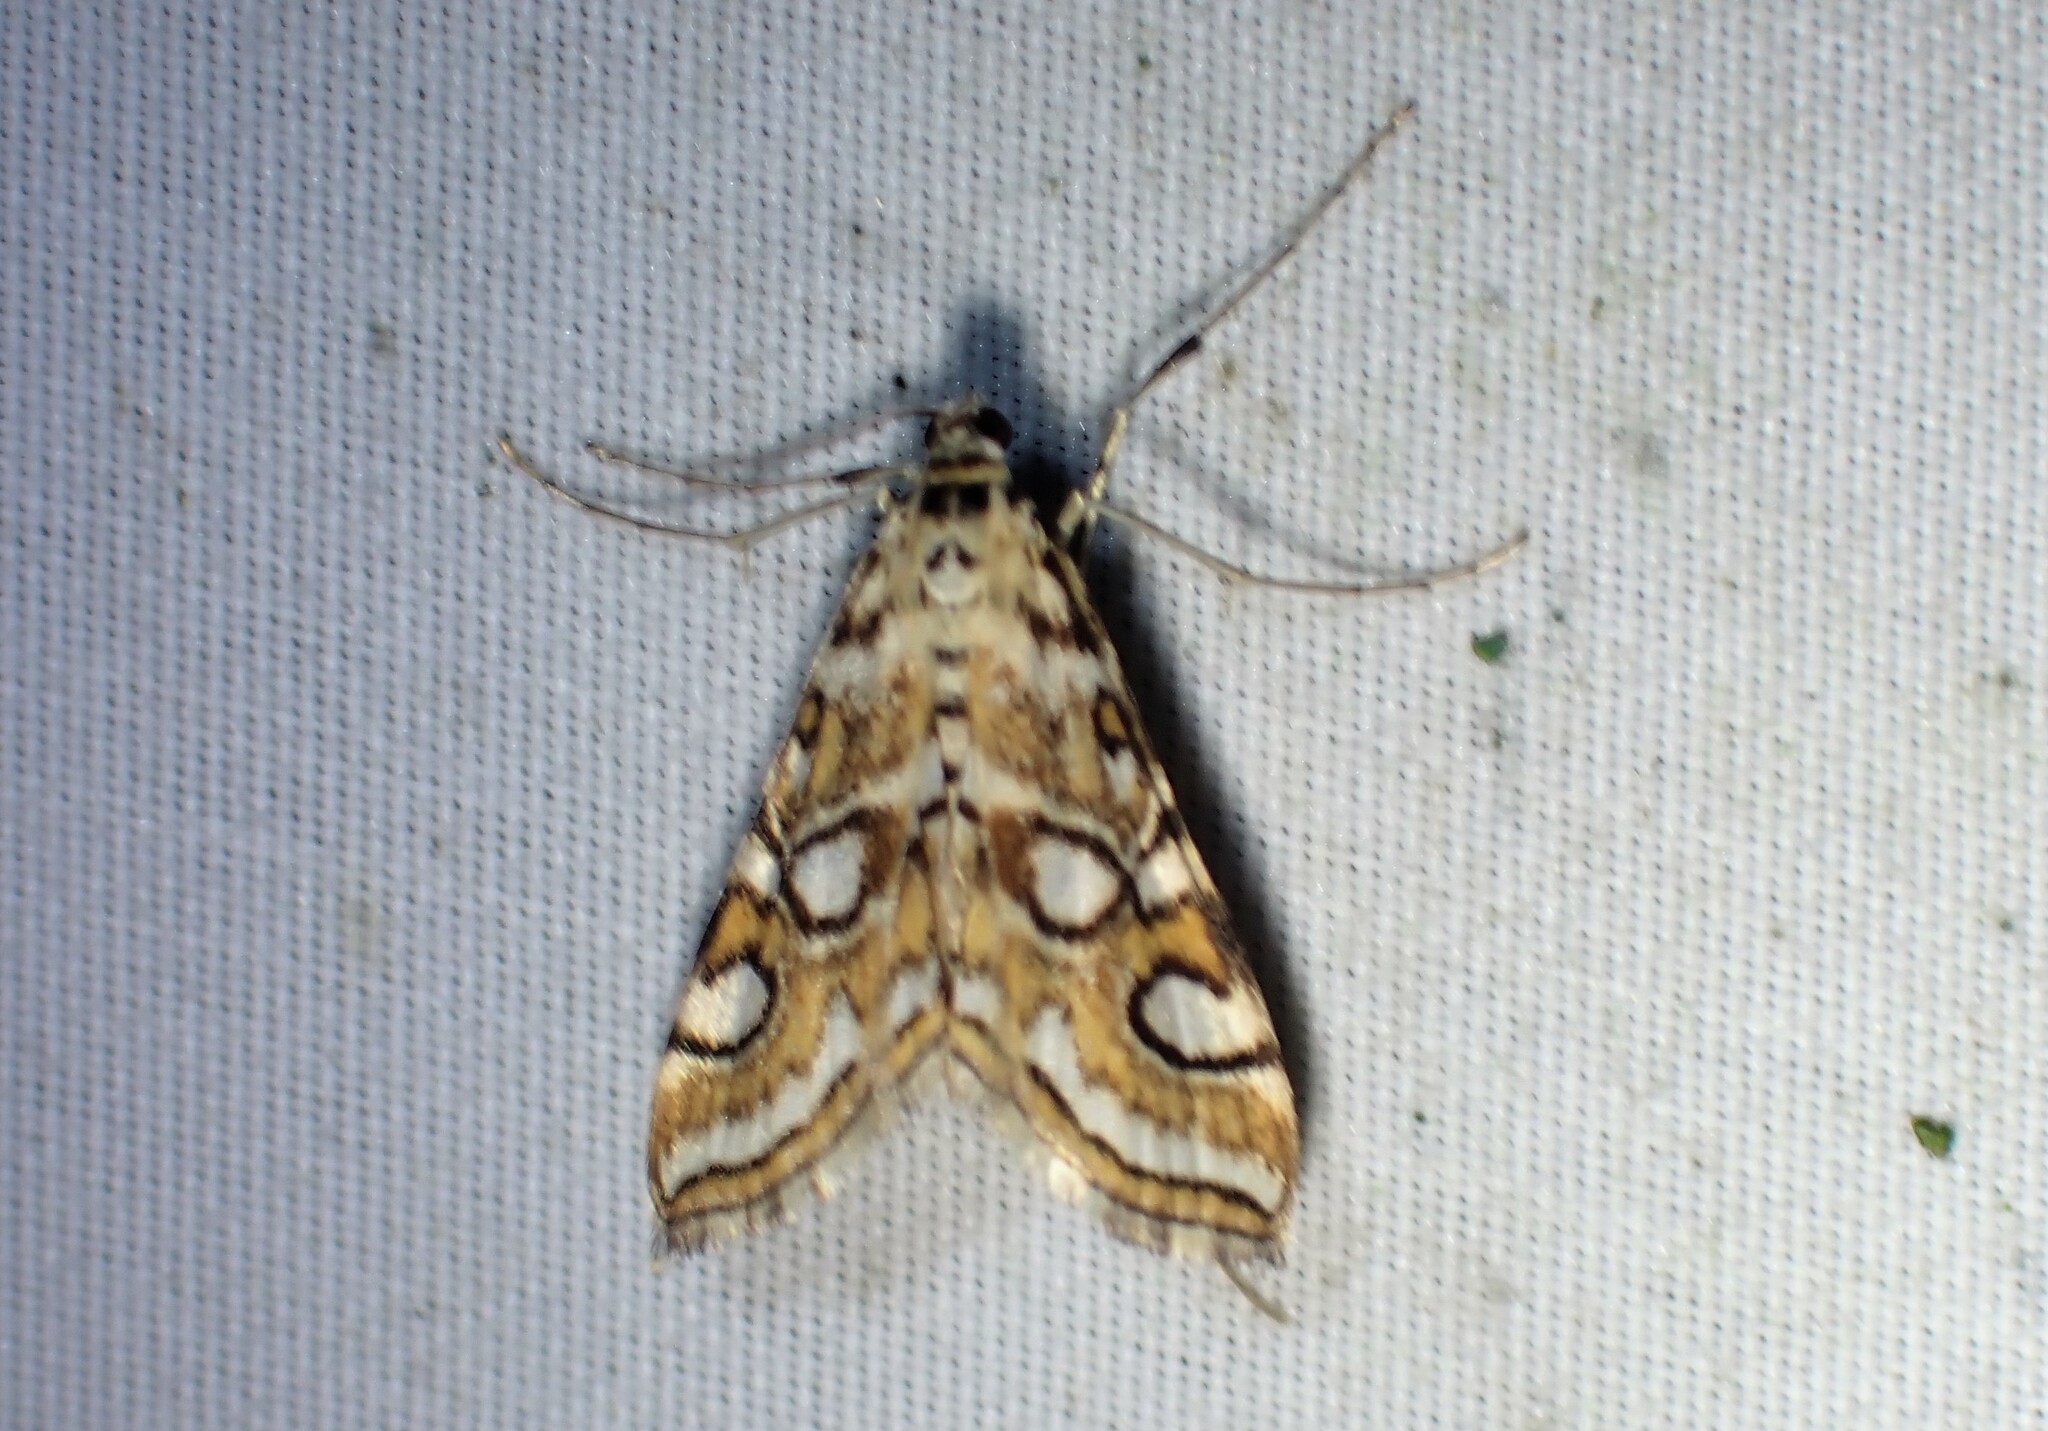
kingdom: Animalia
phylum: Arthropoda
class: Insecta
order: Lepidoptera
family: Crambidae
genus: Elophila
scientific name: Elophila ekthlipsis
